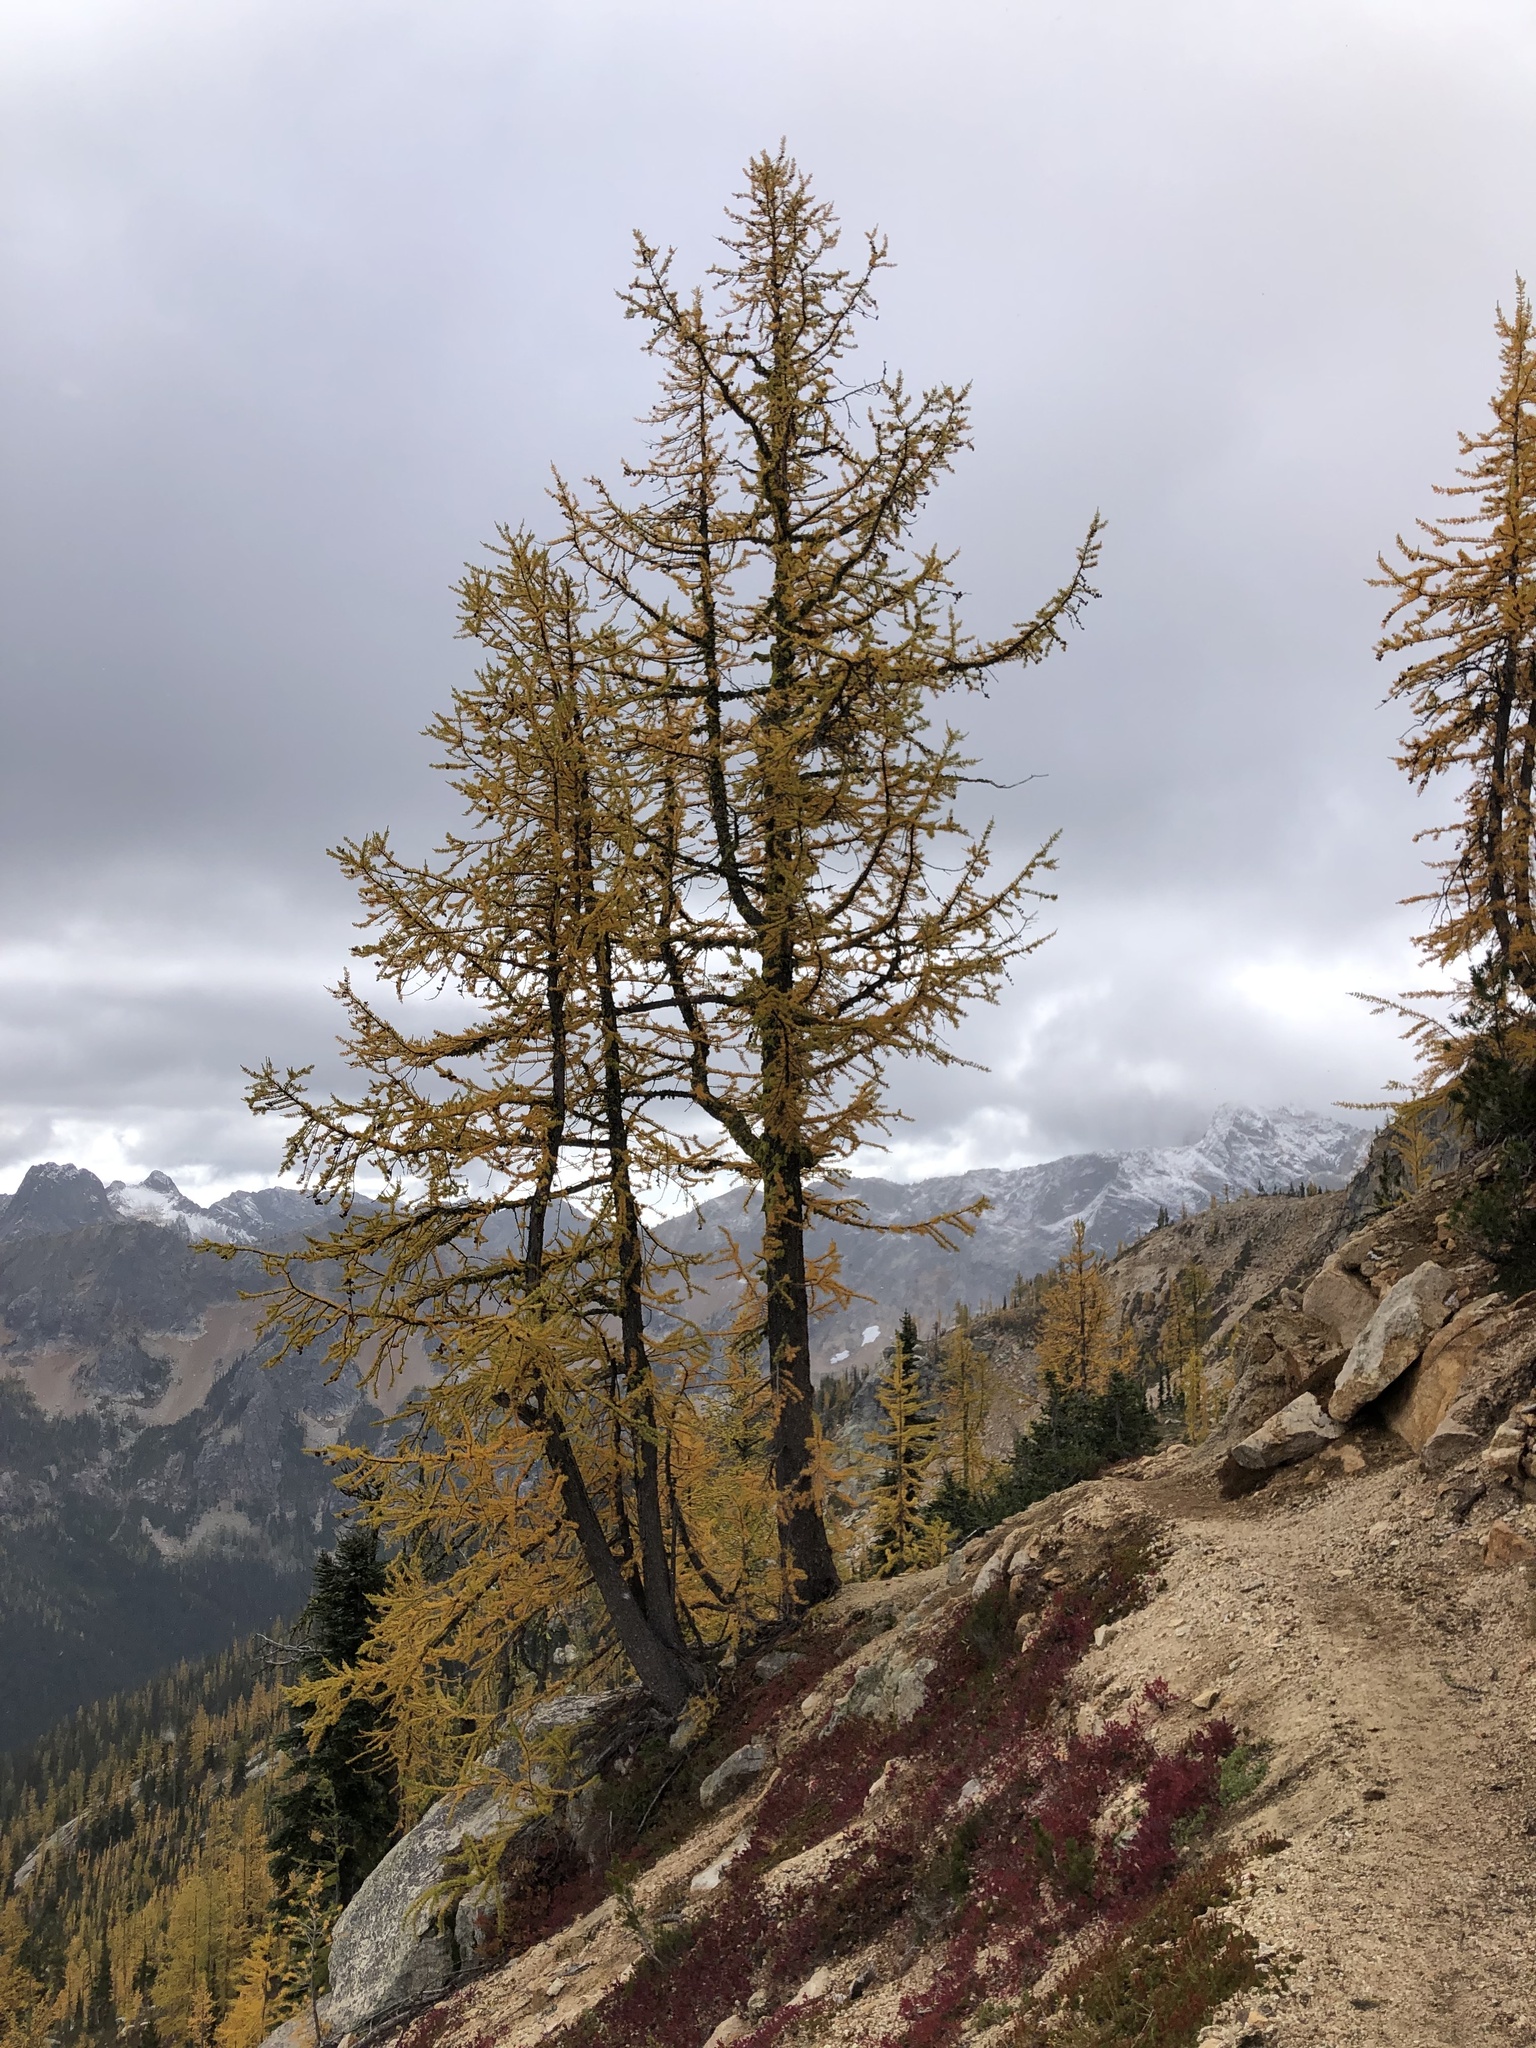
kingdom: Plantae
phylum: Tracheophyta
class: Pinopsida
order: Pinales
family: Pinaceae
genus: Larix
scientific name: Larix lyallii
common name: Alpine larch
